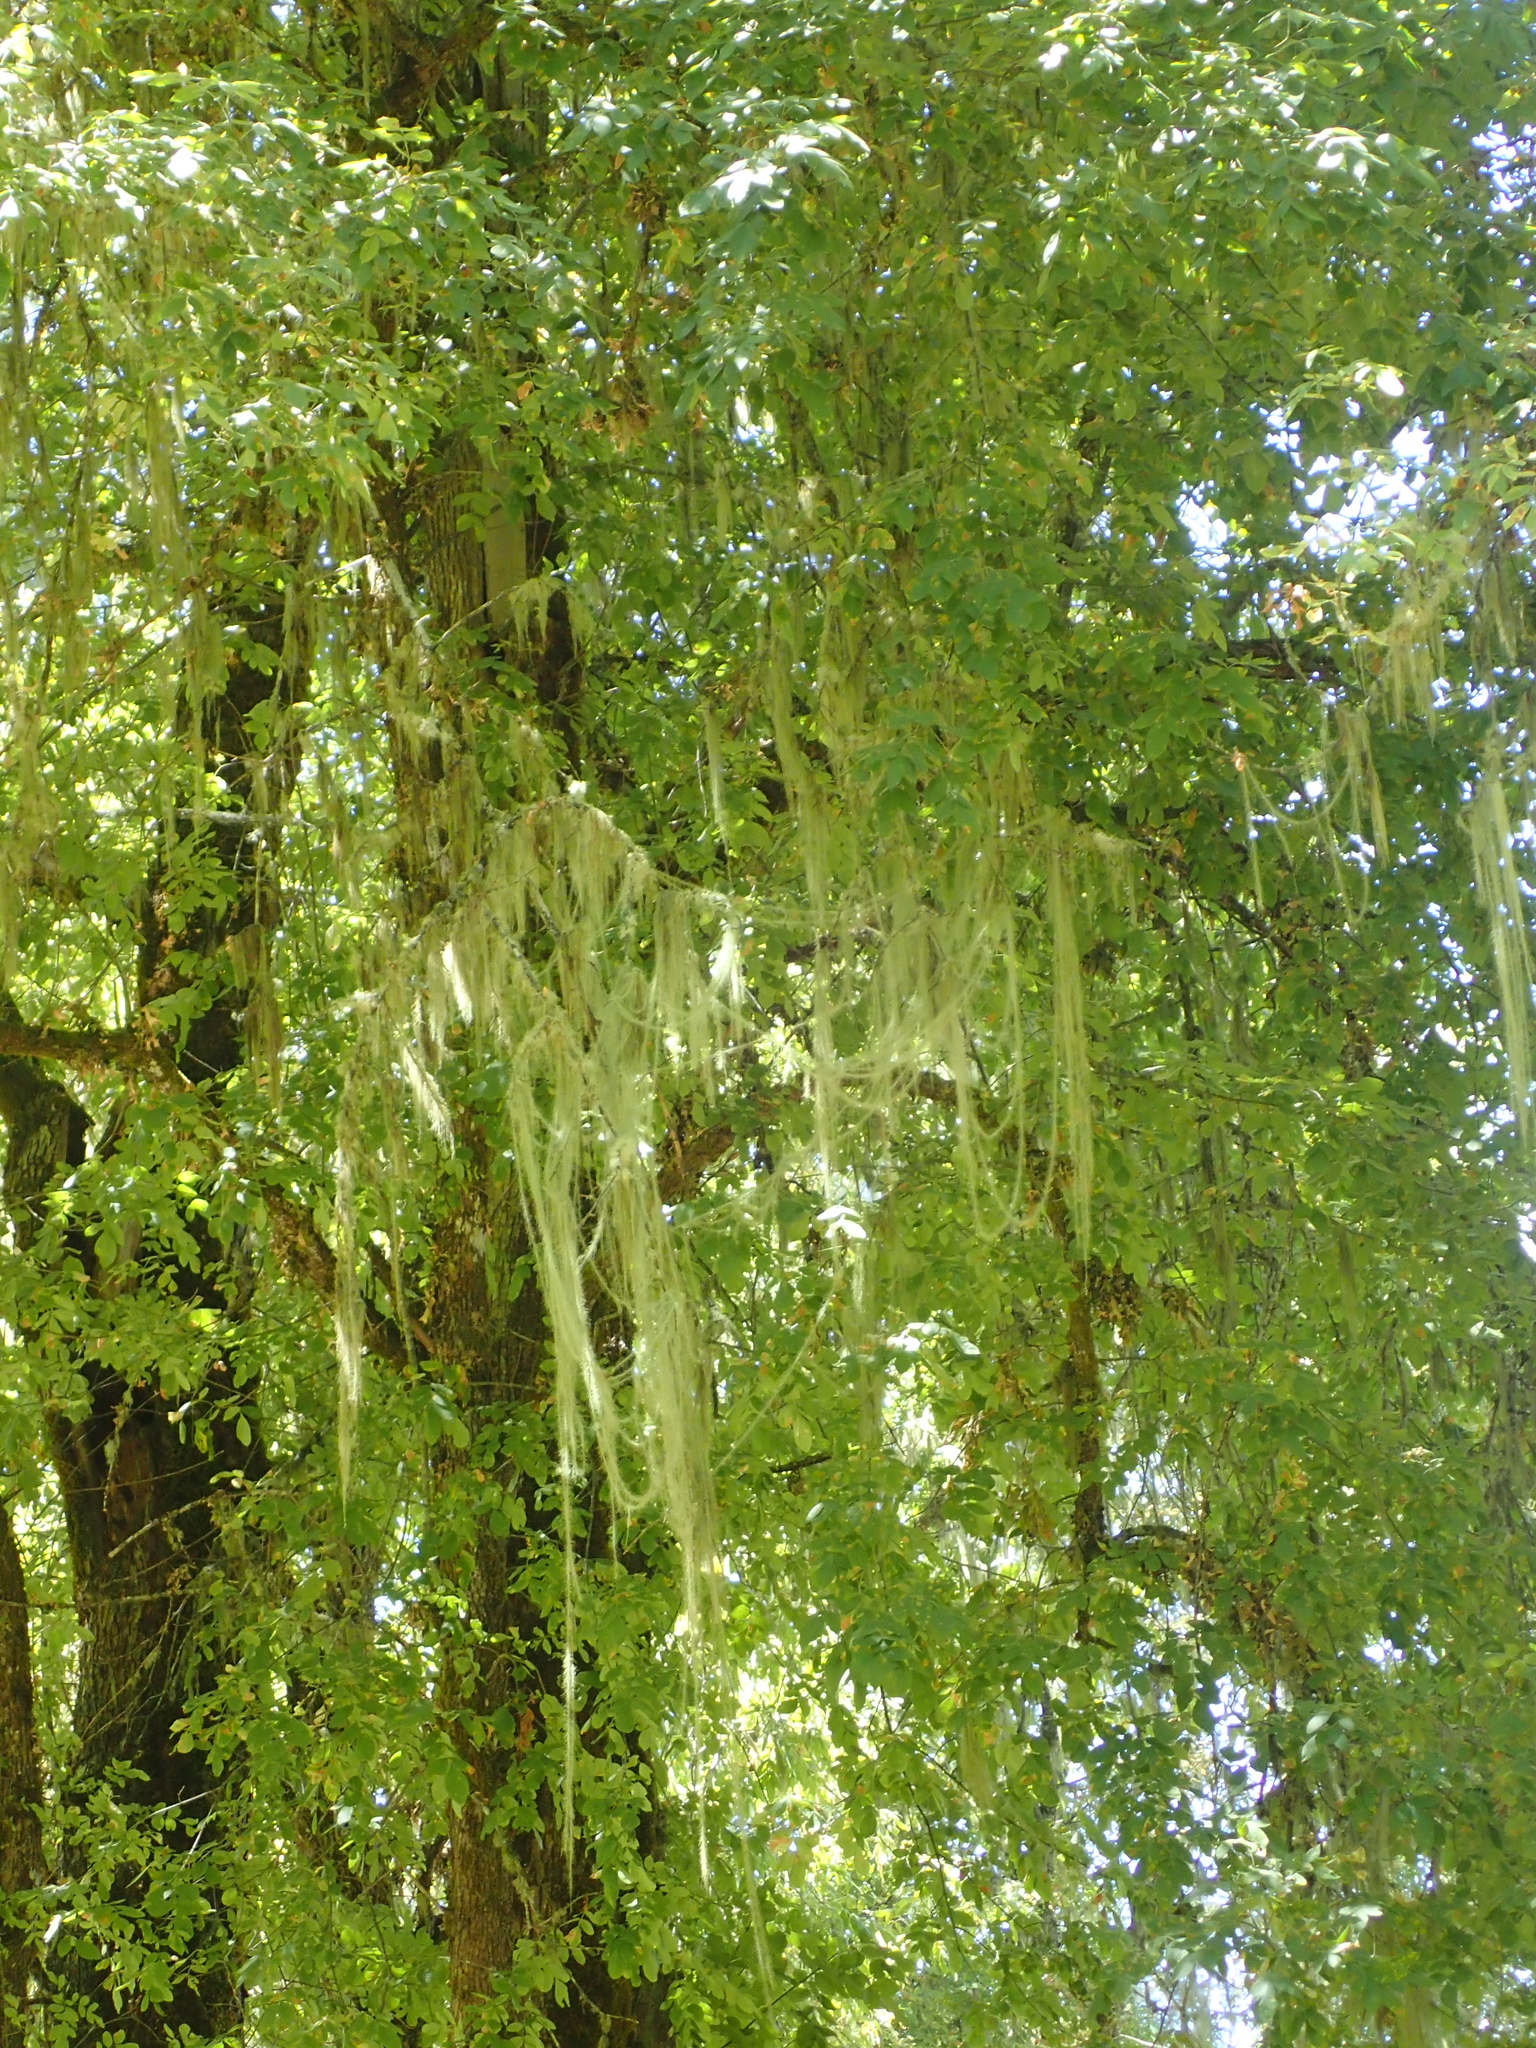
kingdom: Fungi
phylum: Ascomycota
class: Lecanoromycetes
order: Lecanorales
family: Parmeliaceae
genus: Dolichousnea
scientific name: Dolichousnea longissima
